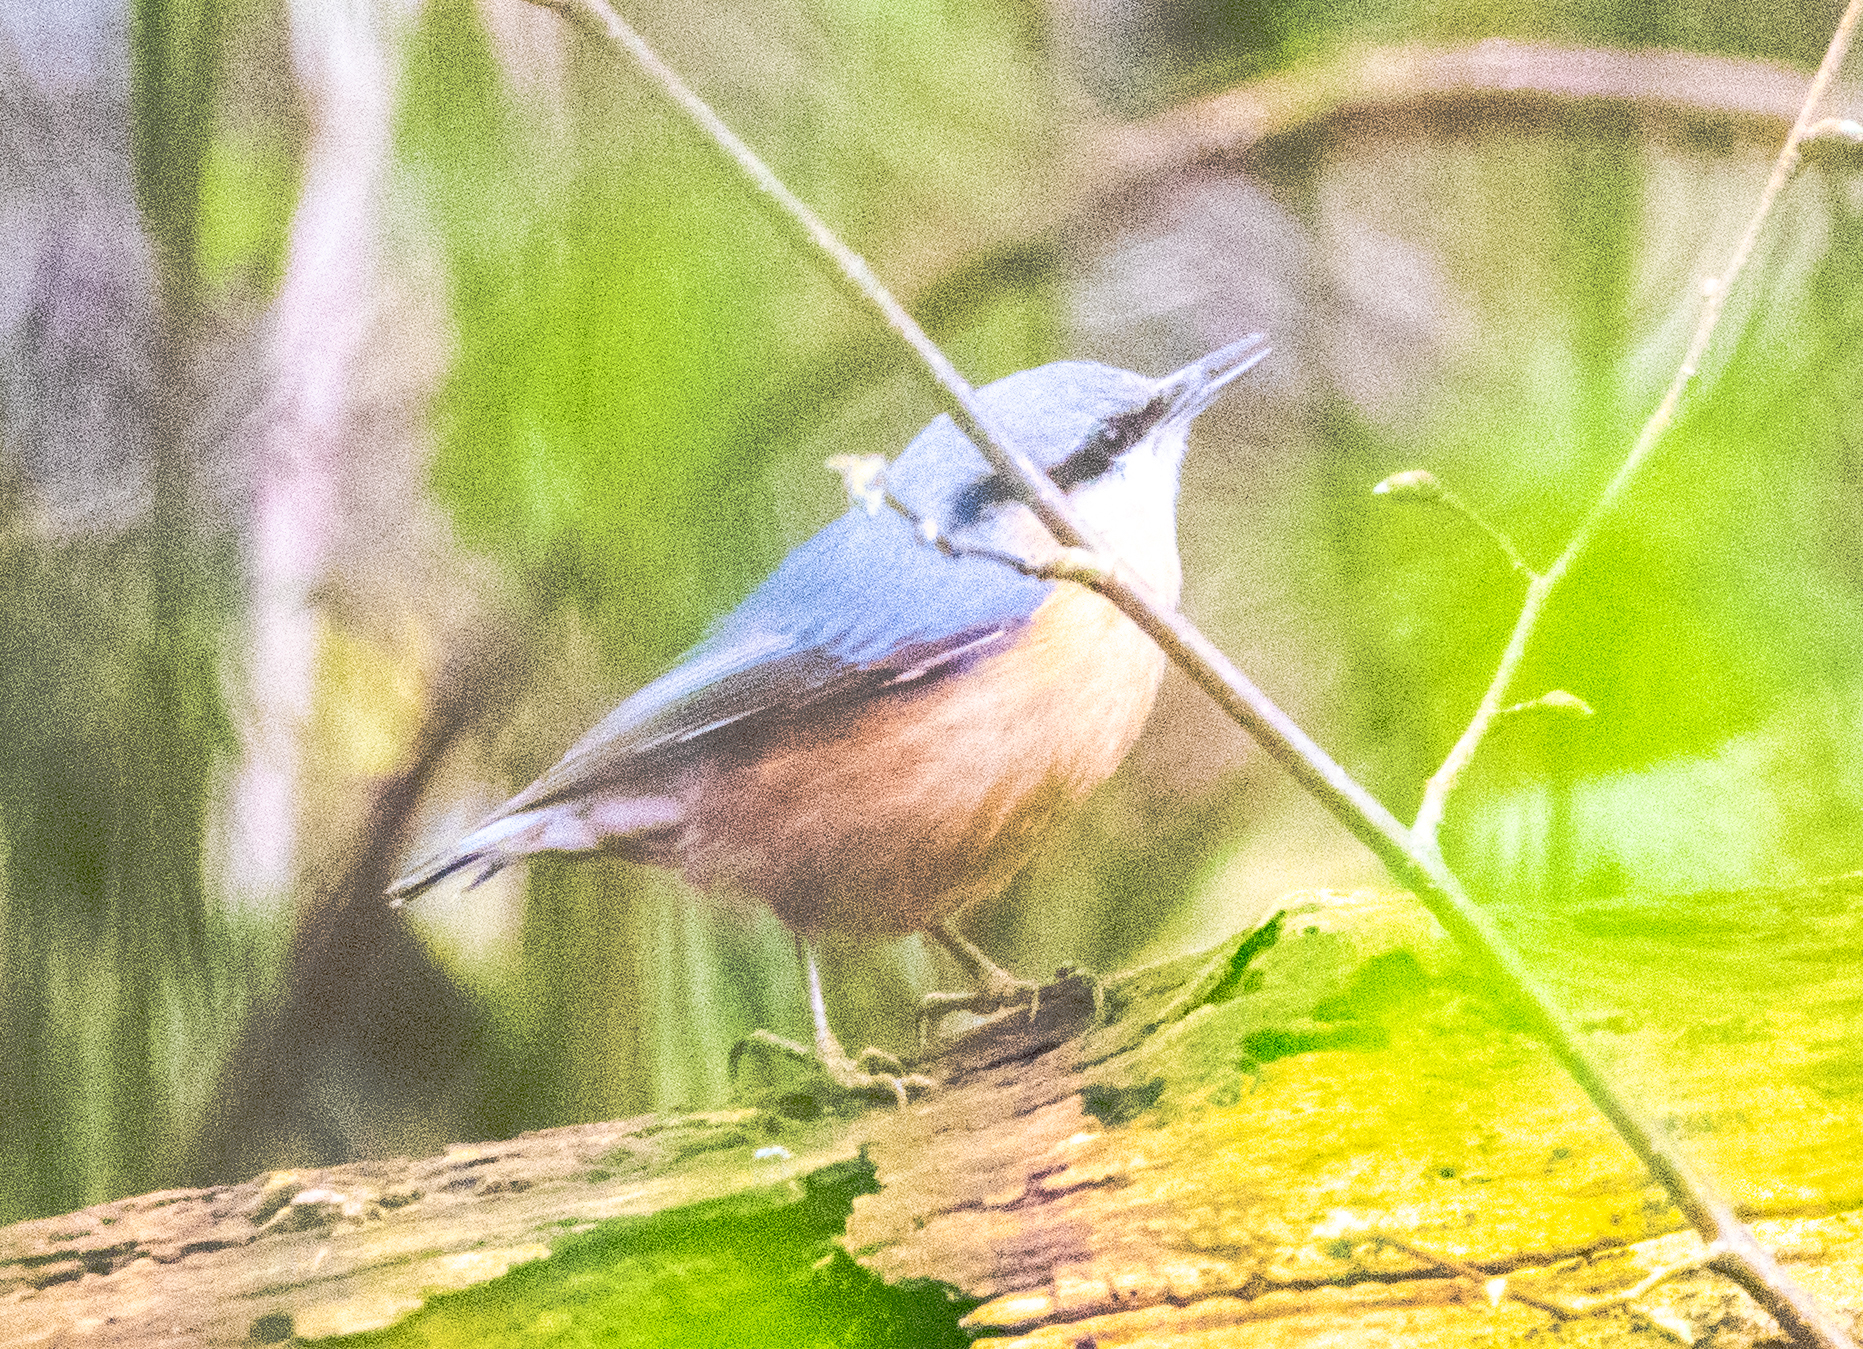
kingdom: Animalia
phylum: Chordata
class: Aves
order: Passeriformes
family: Sittidae
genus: Sitta
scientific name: Sitta europaea
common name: Eurasian nuthatch
